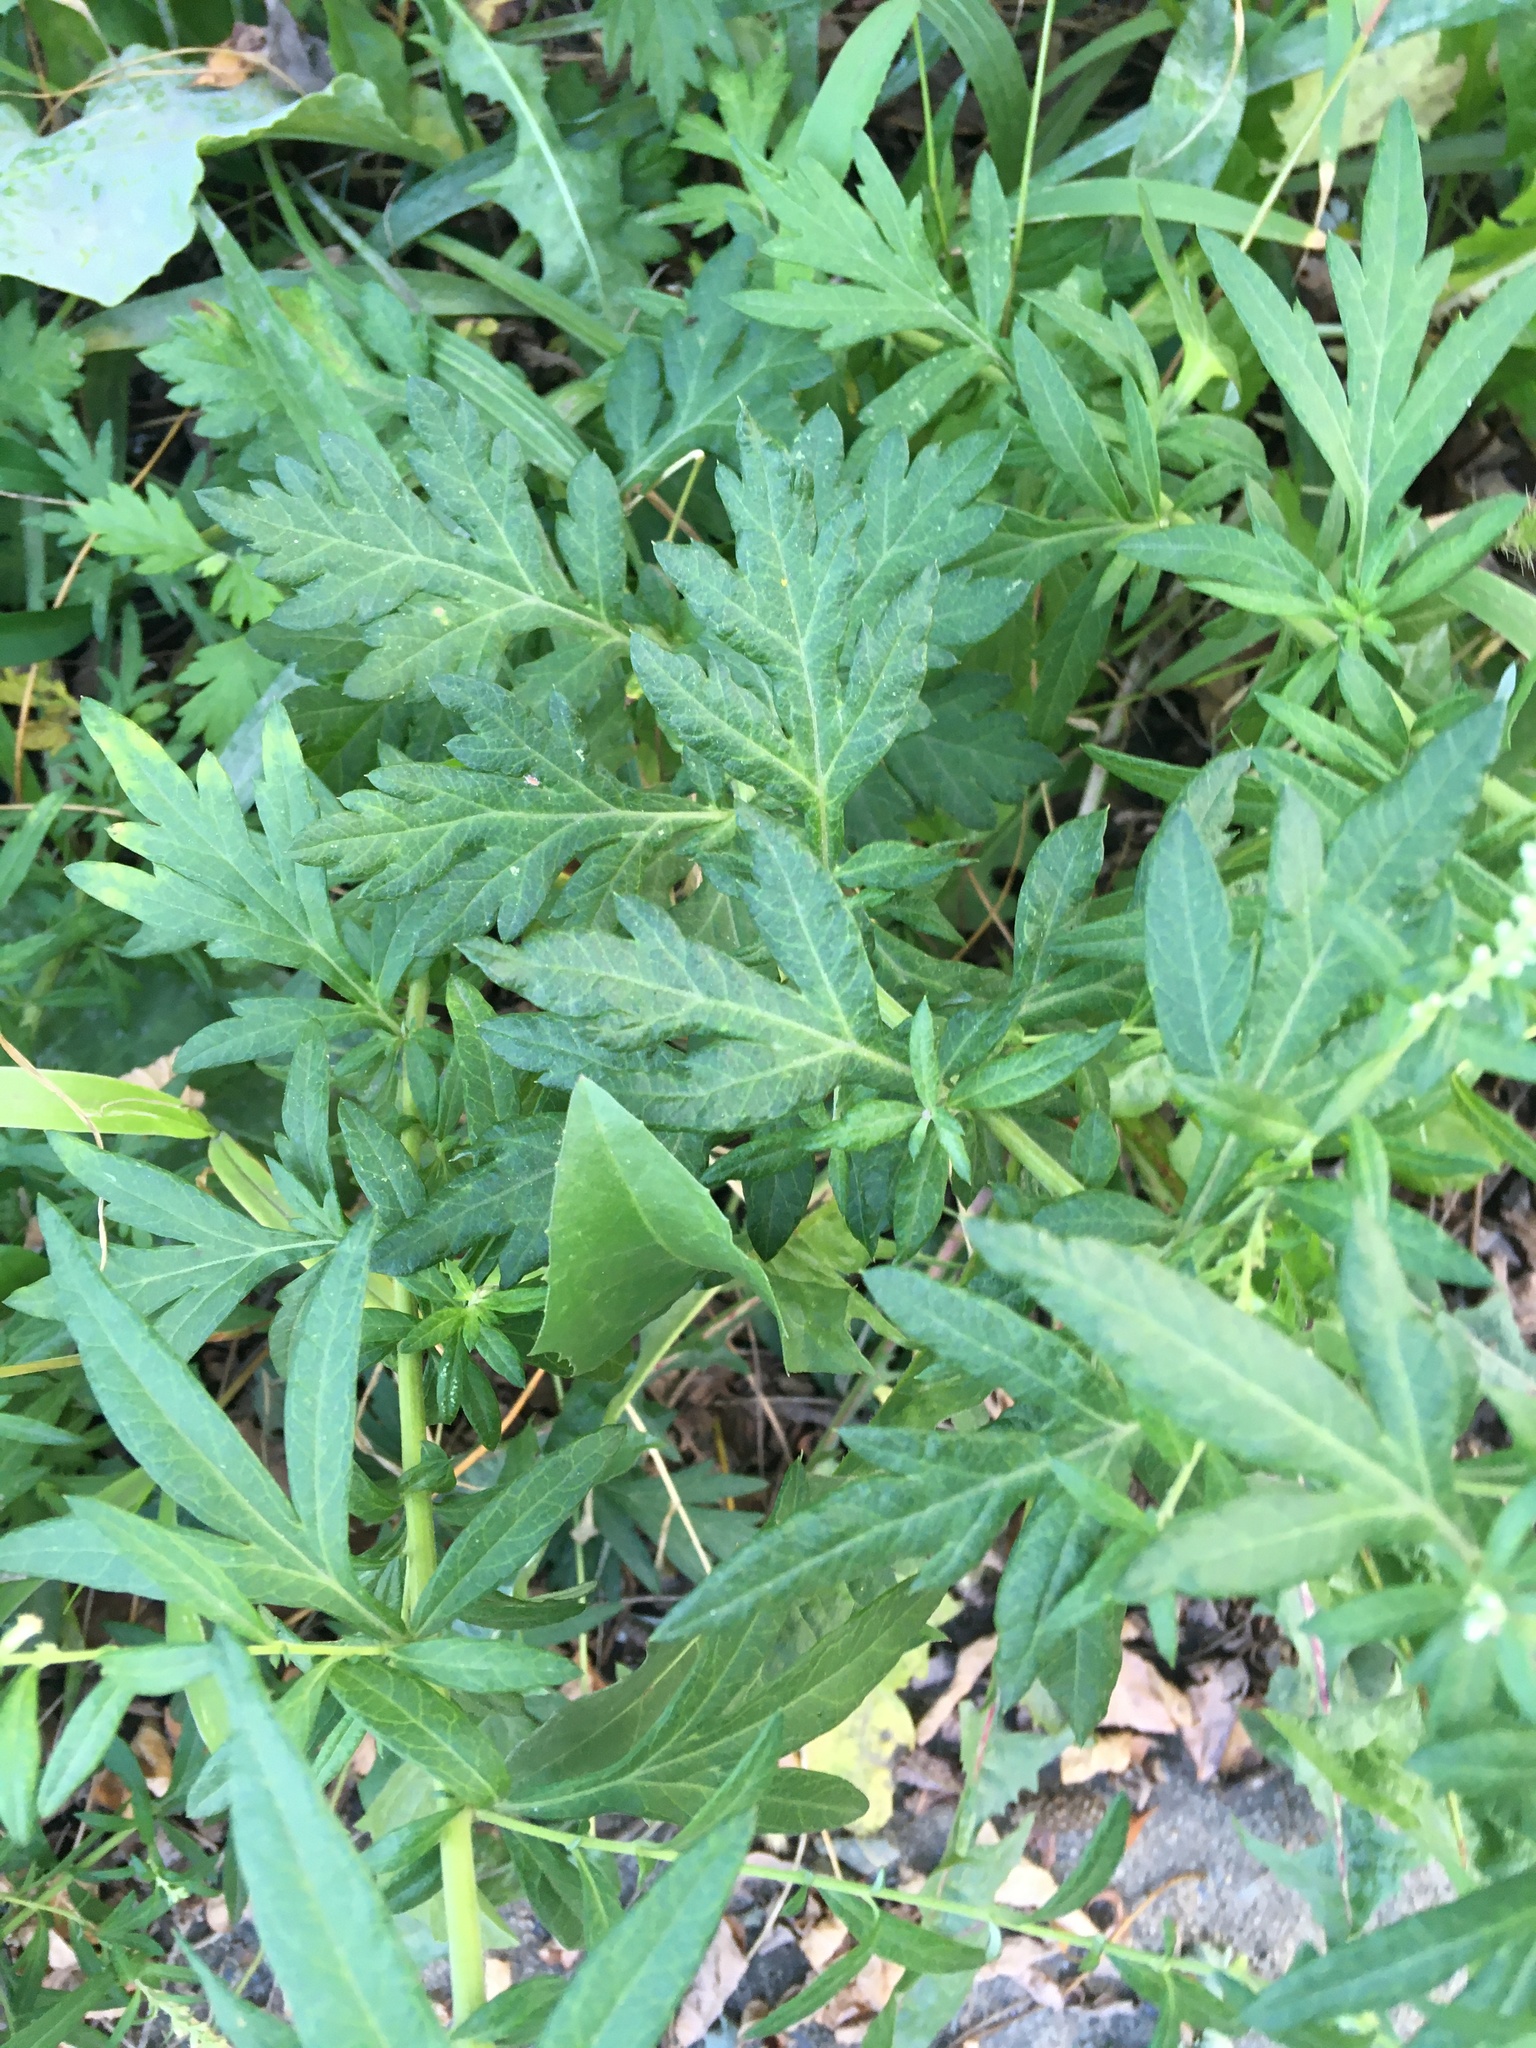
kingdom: Plantae
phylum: Tracheophyta
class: Magnoliopsida
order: Asterales
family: Asteraceae
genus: Artemisia
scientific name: Artemisia vulgaris
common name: Mugwort
